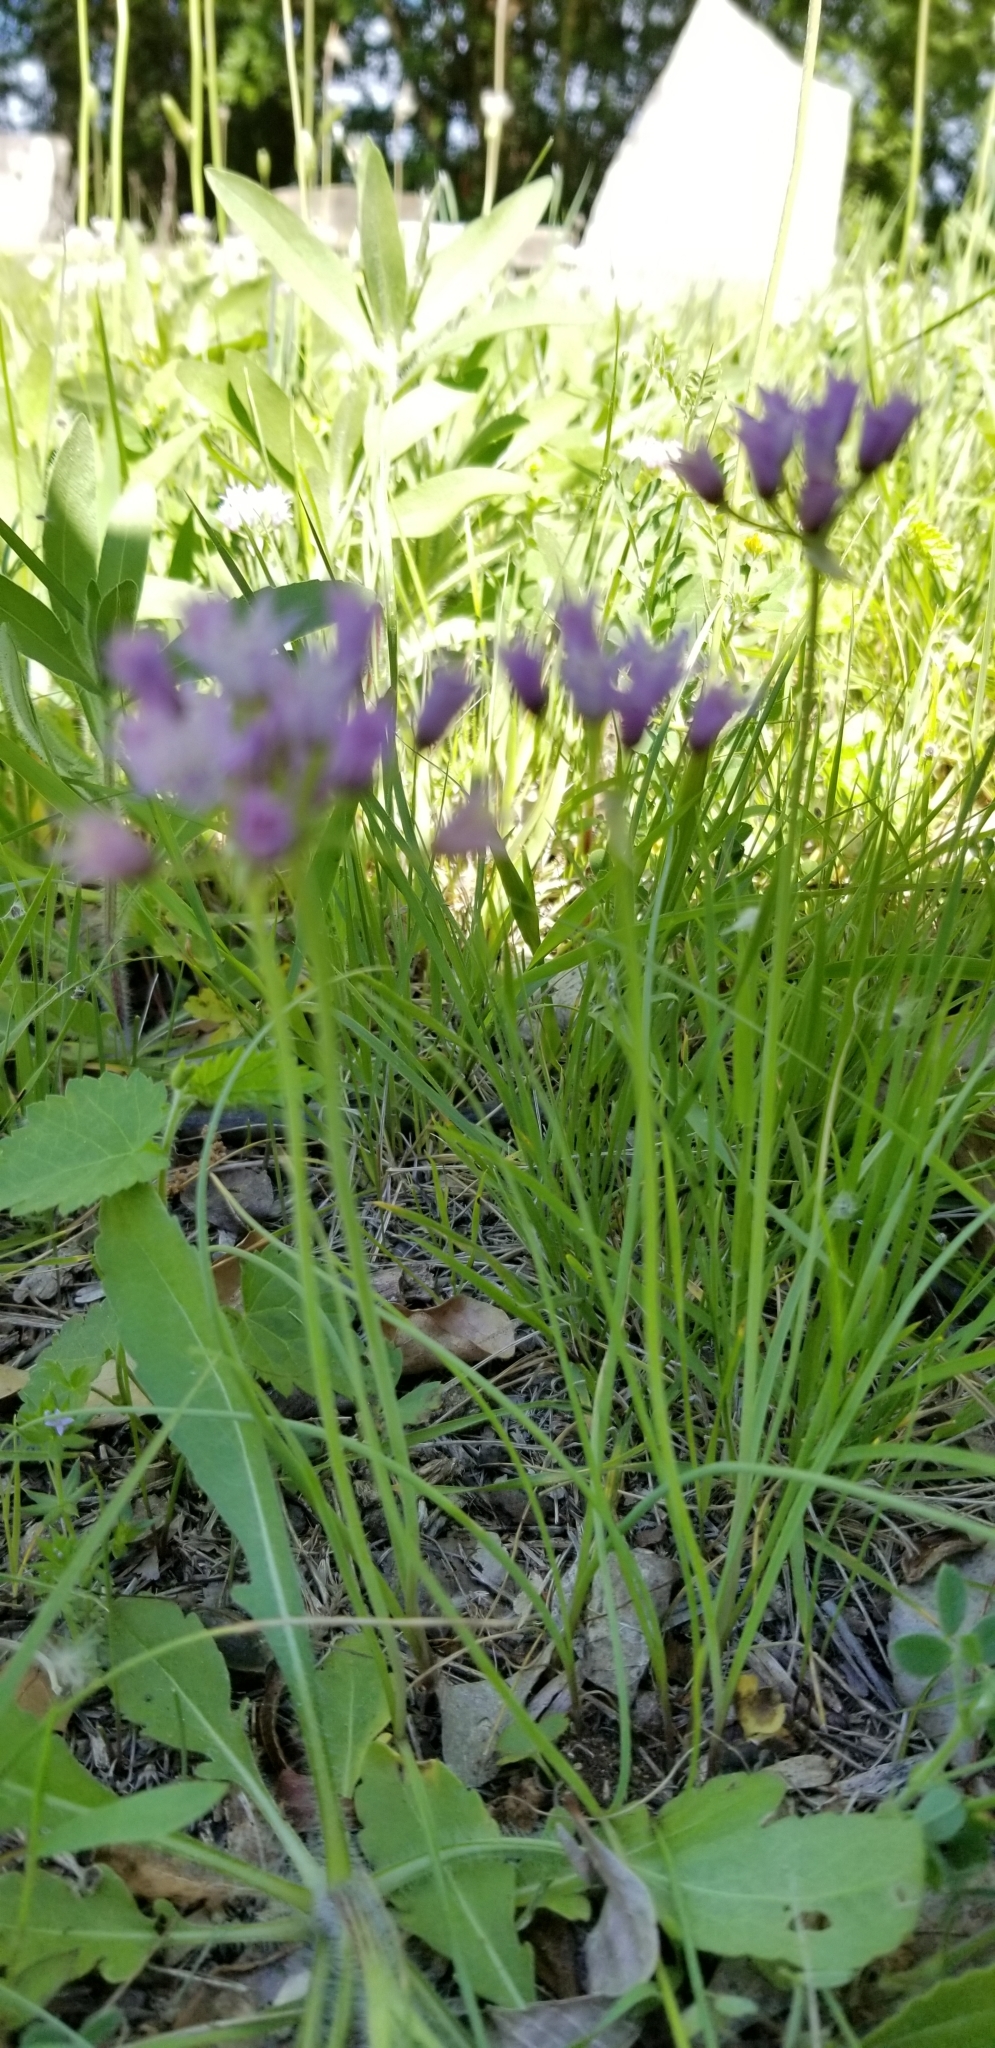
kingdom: Plantae
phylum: Tracheophyta
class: Liliopsida
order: Asparagales
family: Amaryllidaceae
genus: Allium
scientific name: Allium drummondii
